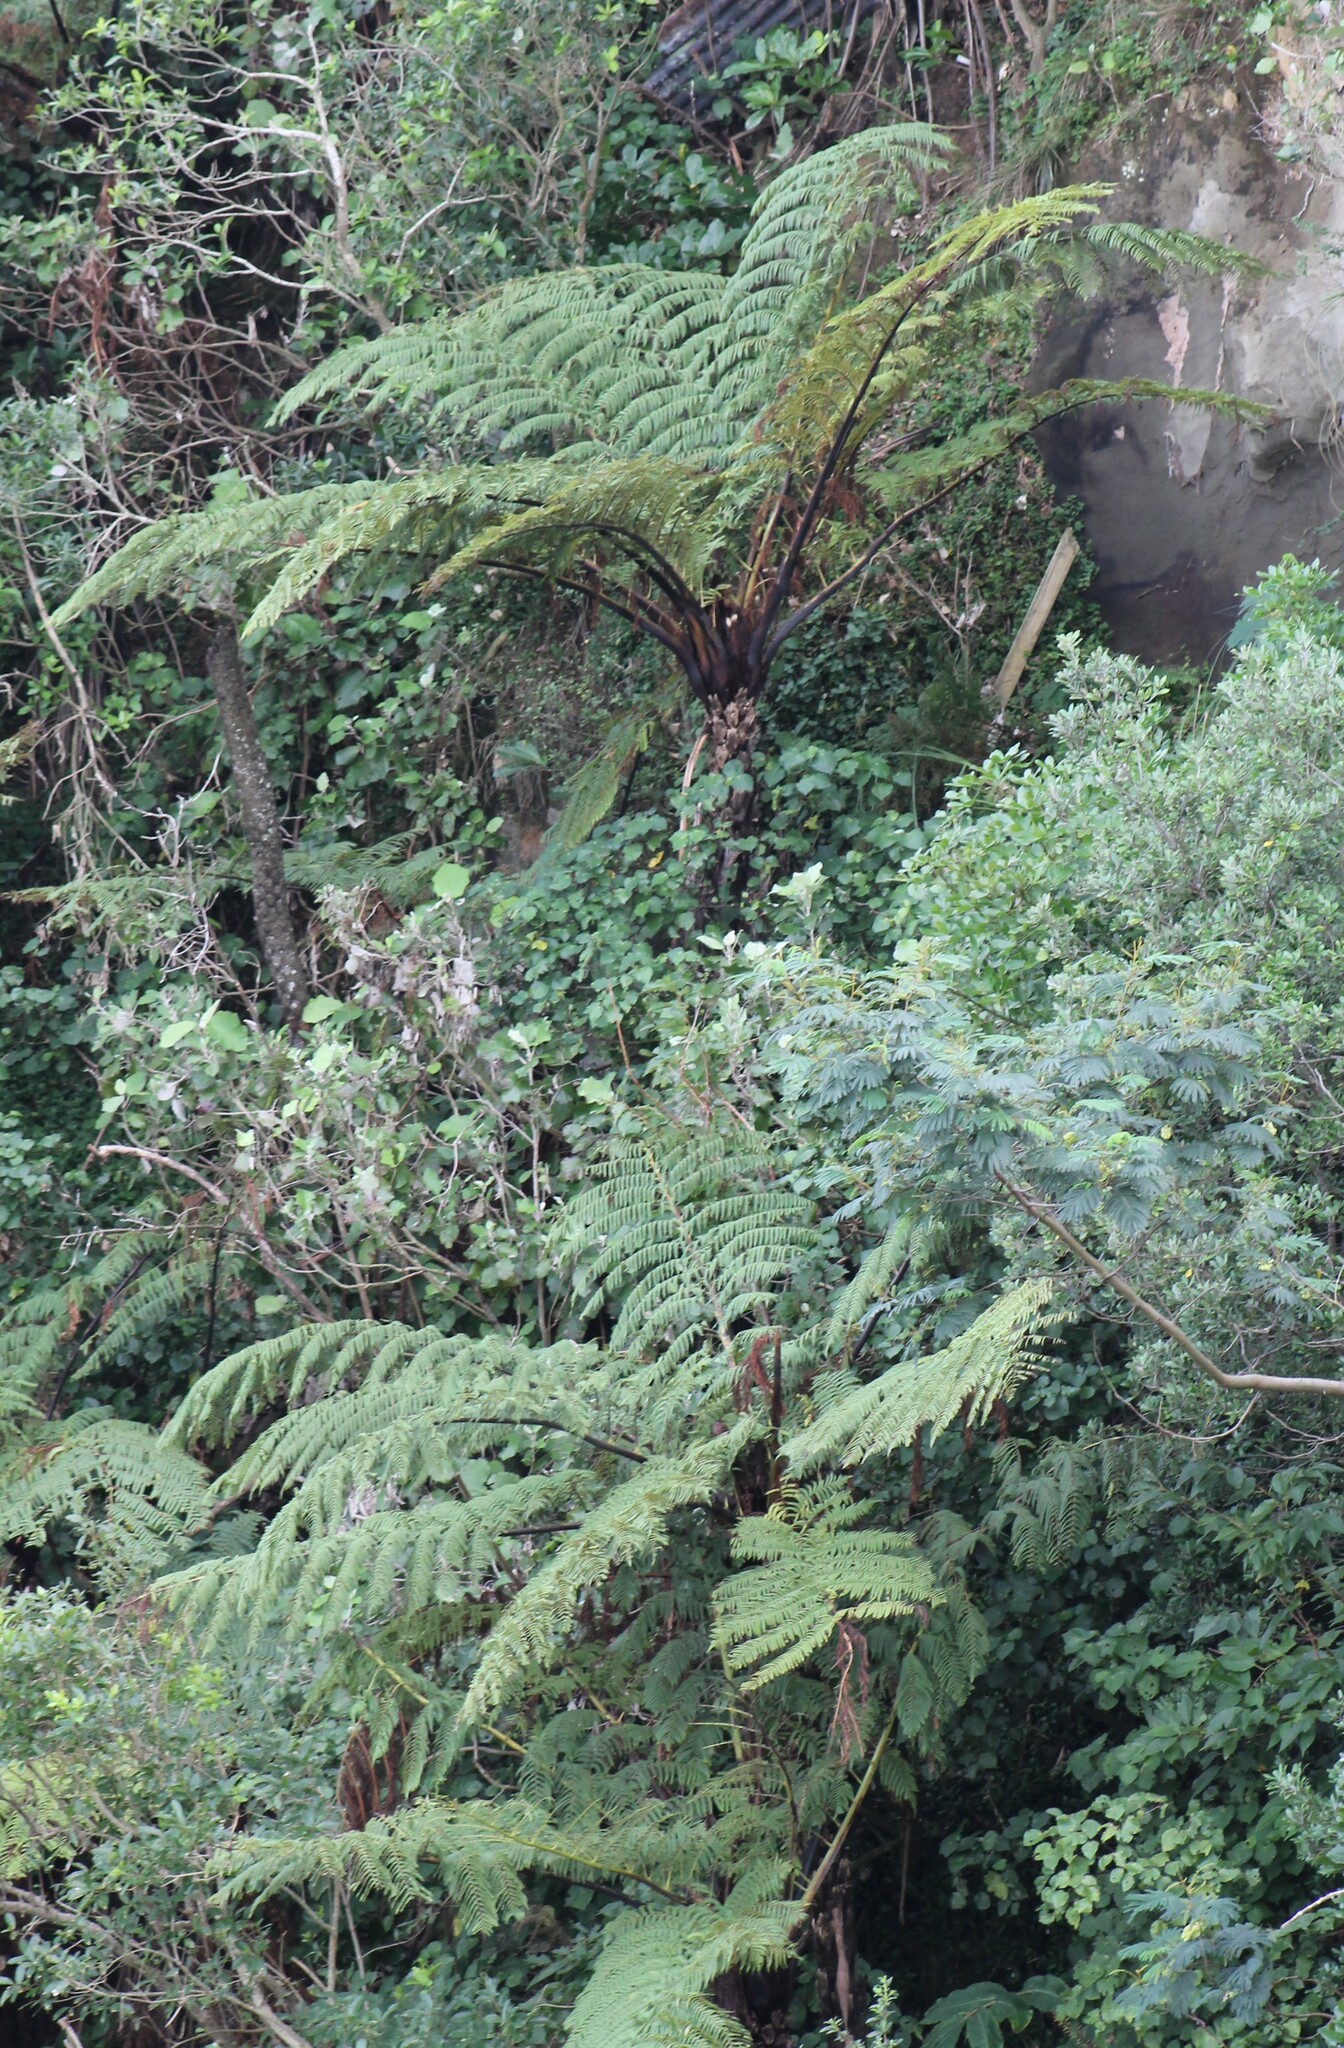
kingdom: Plantae
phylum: Tracheophyta
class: Polypodiopsida
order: Cyatheales
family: Cyatheaceae
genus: Sphaeropteris
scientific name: Sphaeropteris medullaris
